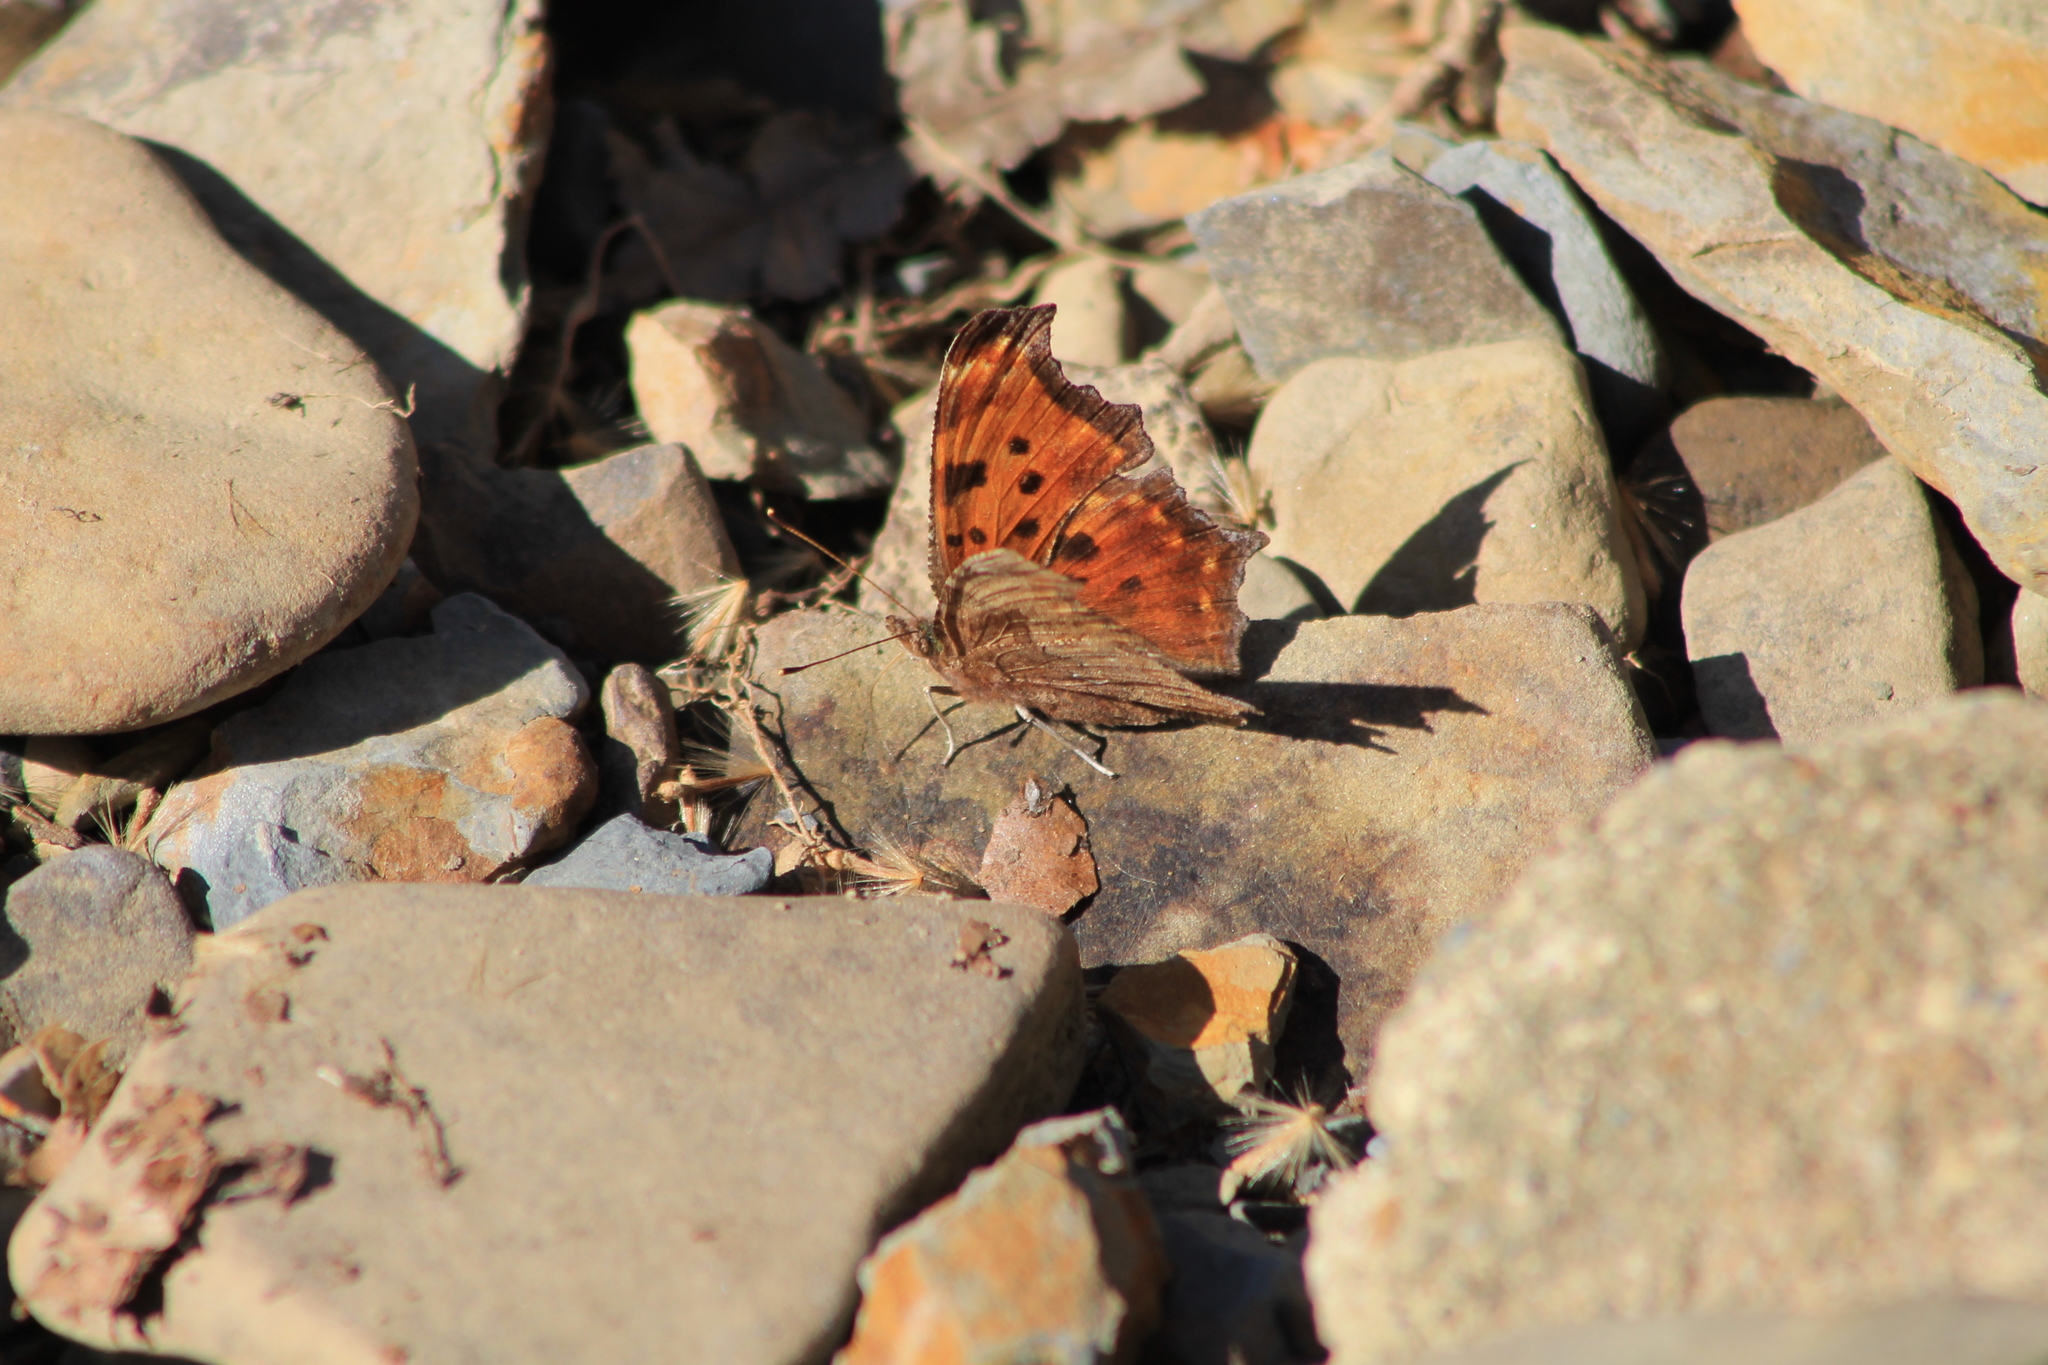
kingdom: Animalia
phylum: Arthropoda
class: Insecta
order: Lepidoptera
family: Nymphalidae
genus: Polygonia
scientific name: Polygonia comma
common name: Eastern comma
